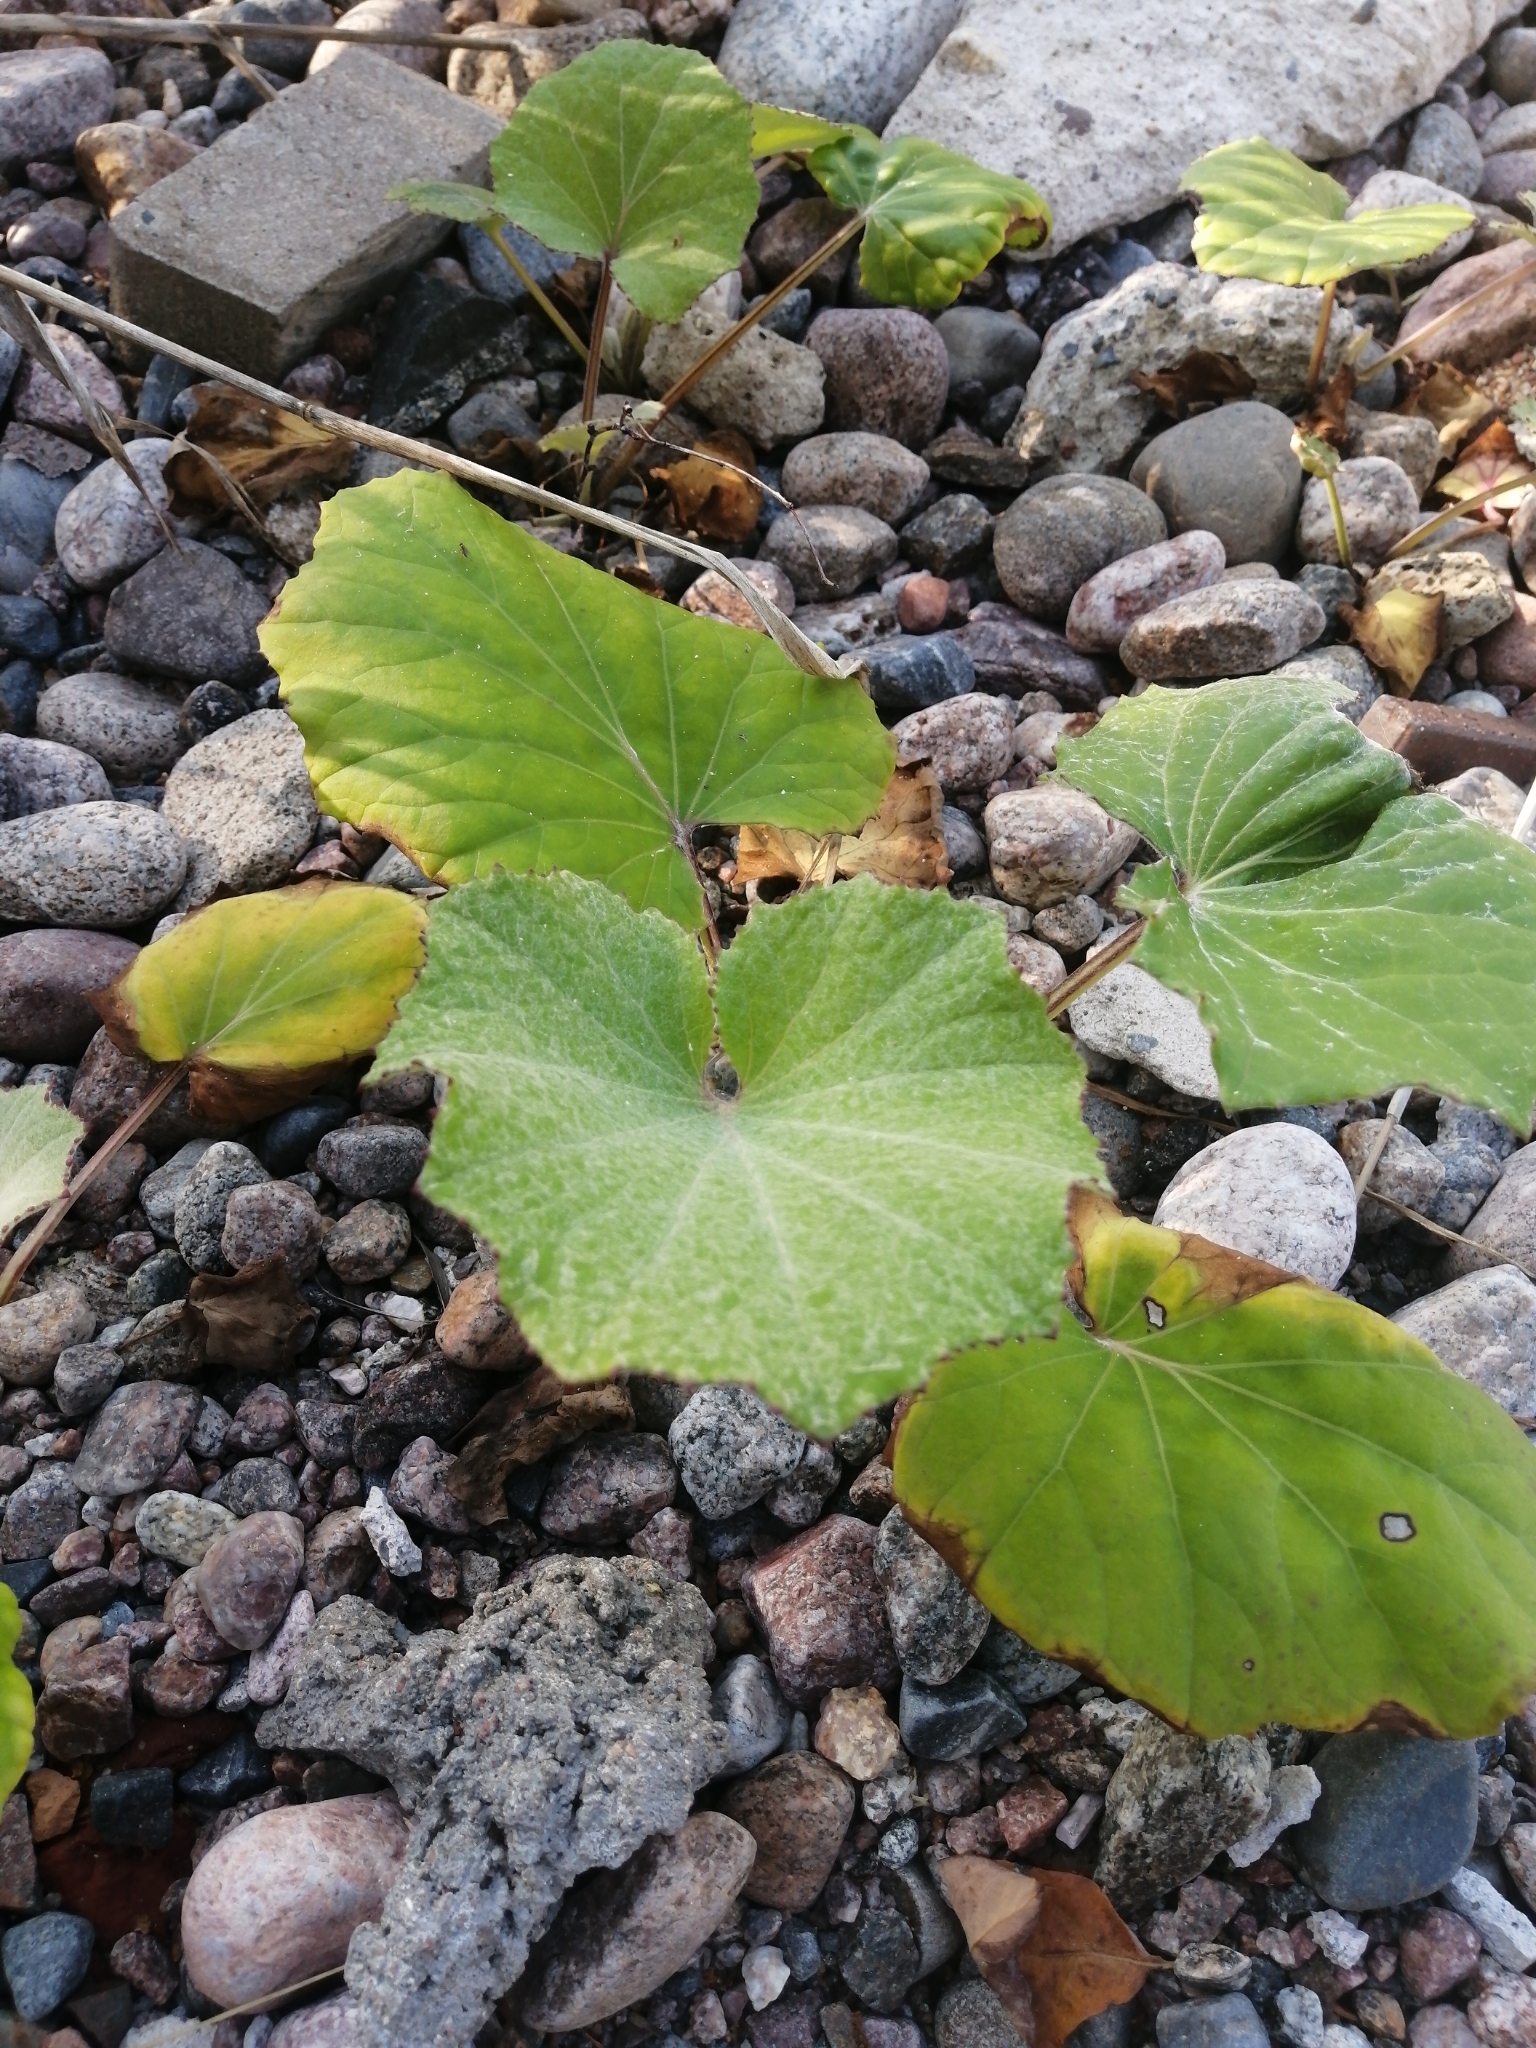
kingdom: Plantae
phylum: Tracheophyta
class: Magnoliopsida
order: Asterales
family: Asteraceae
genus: Tussilago
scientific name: Tussilago farfara
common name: Coltsfoot
